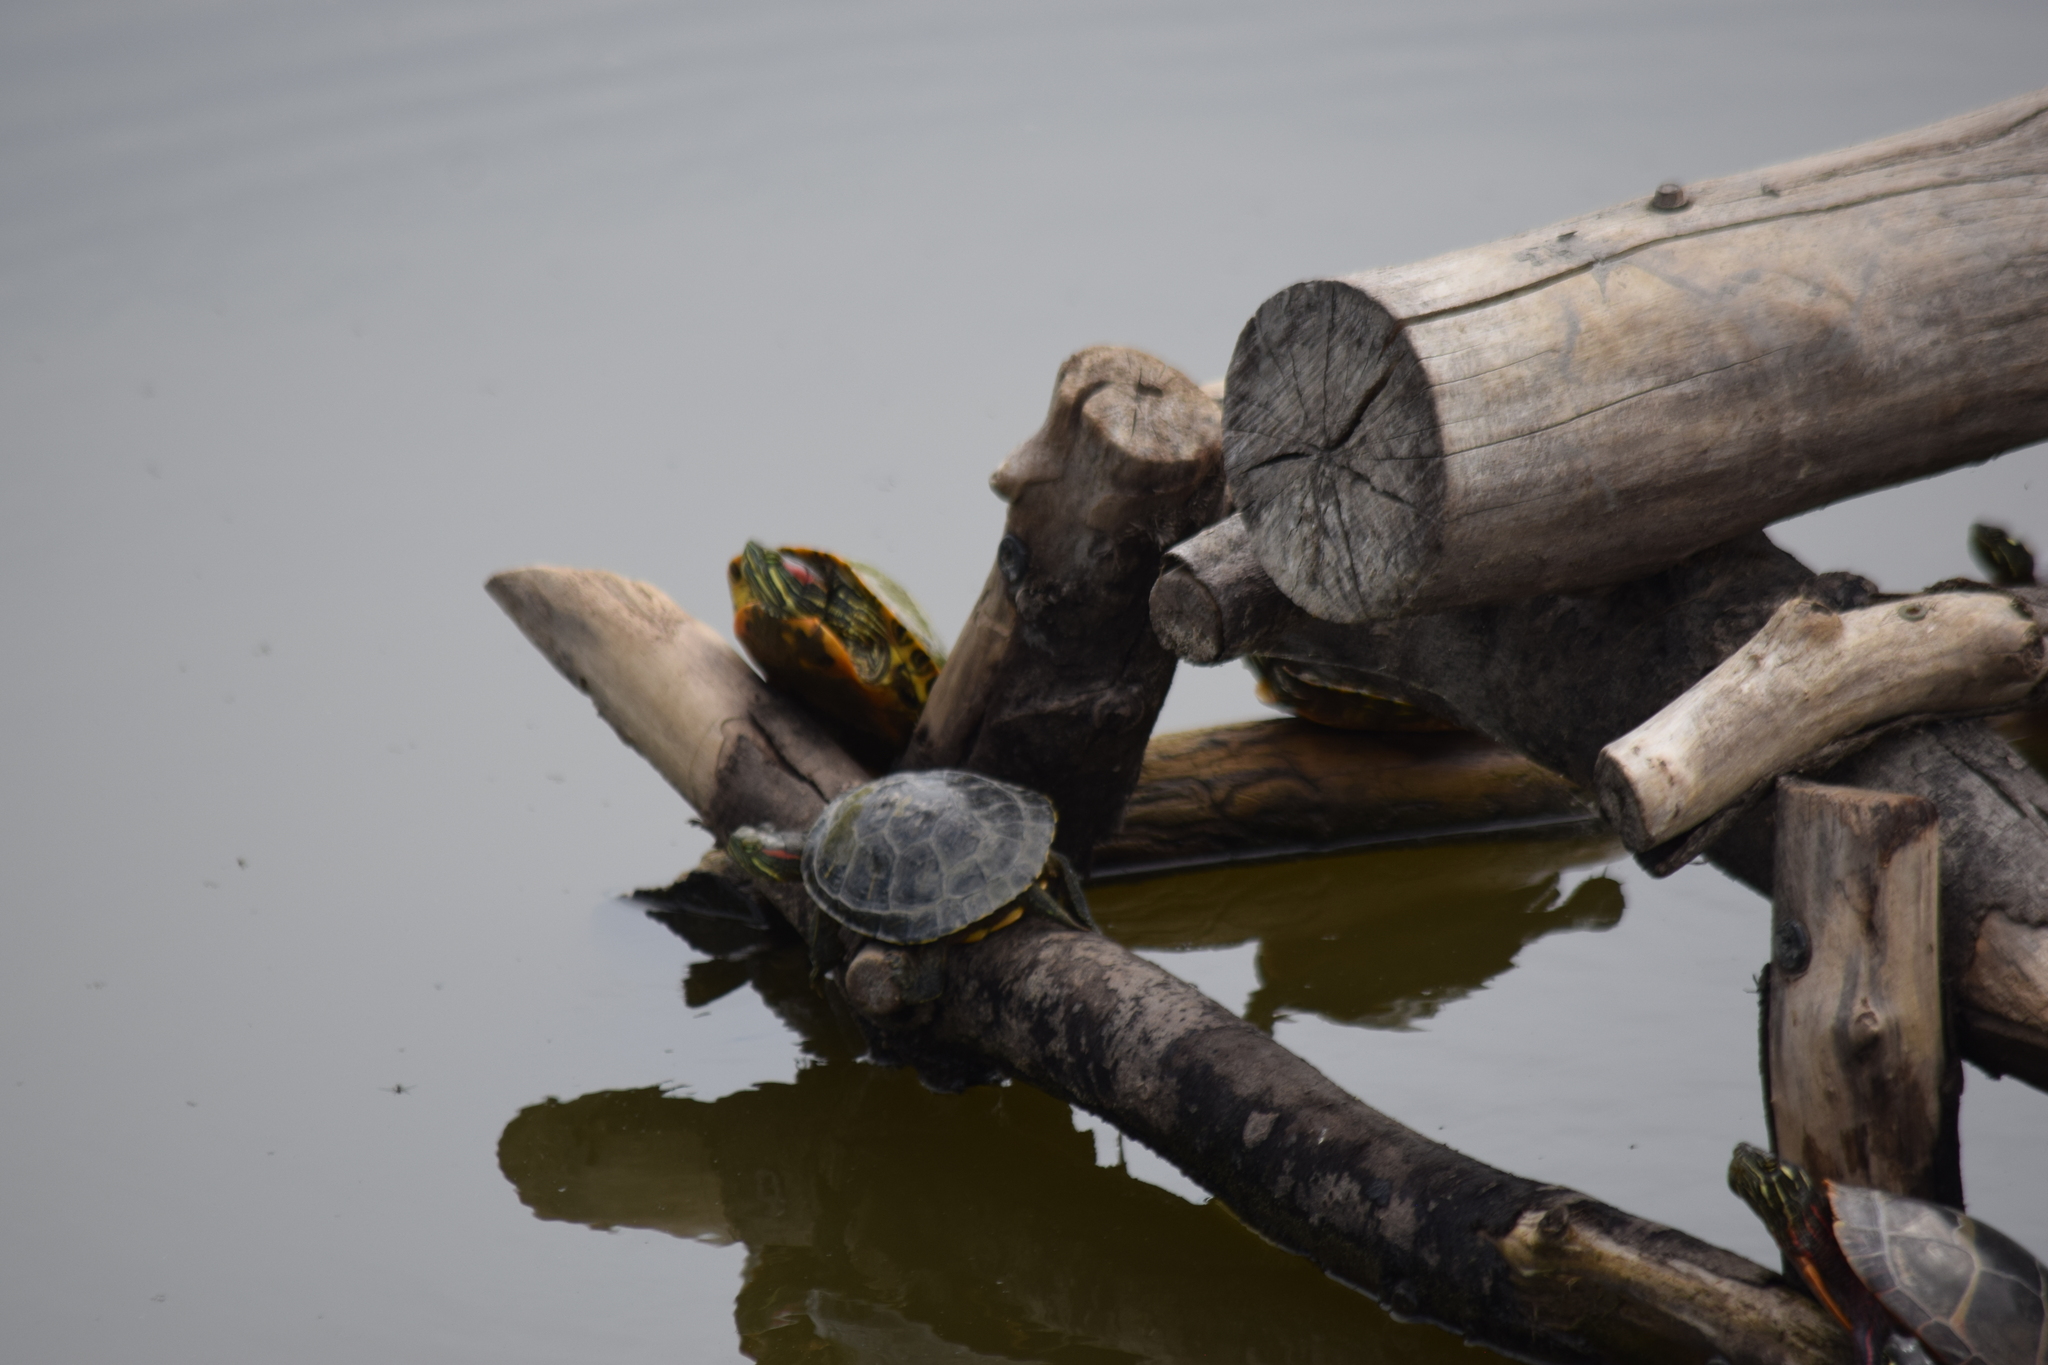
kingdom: Animalia
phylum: Chordata
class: Testudines
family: Emydidae
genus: Trachemys
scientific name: Trachemys scripta
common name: Slider
